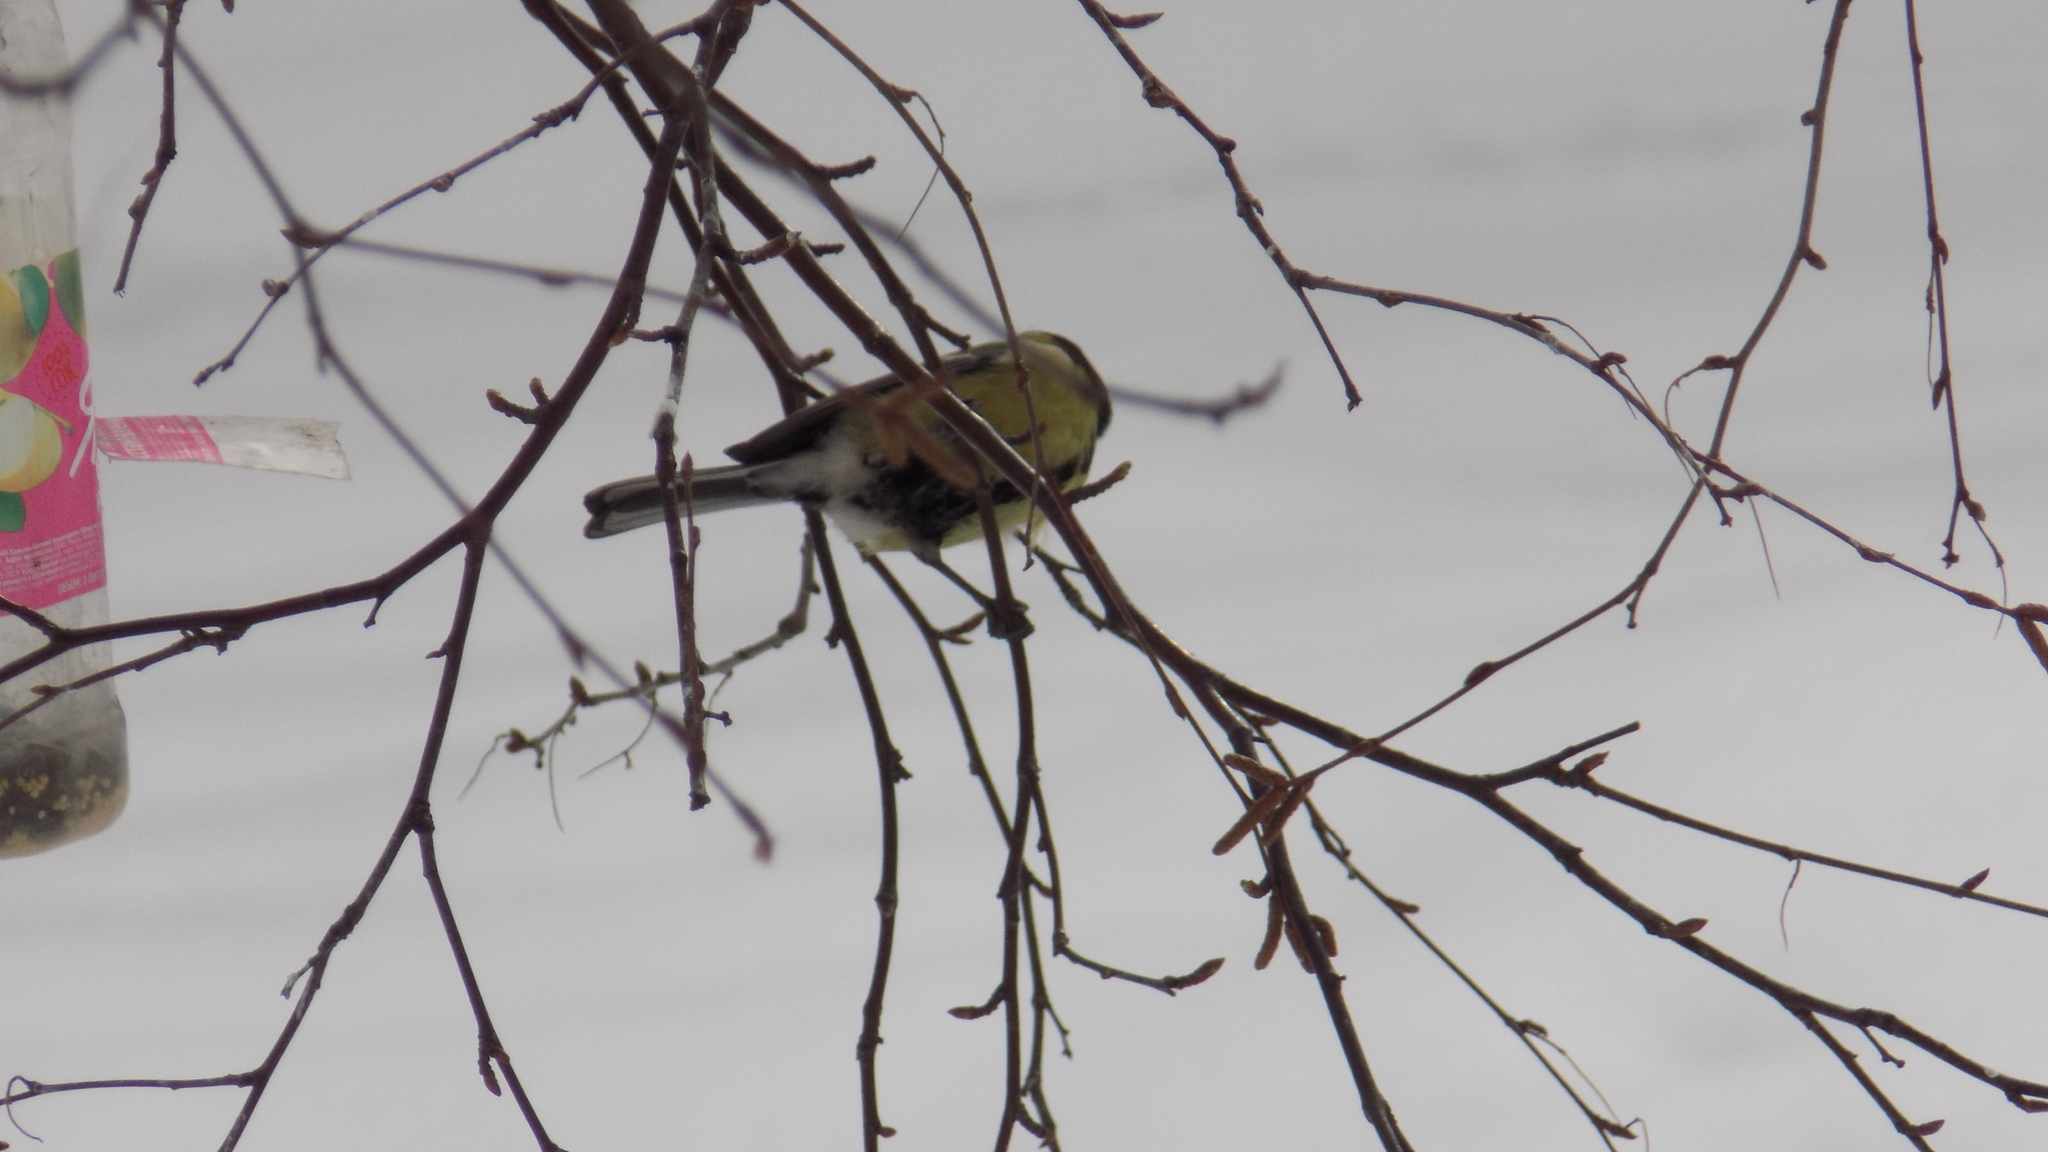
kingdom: Animalia
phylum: Chordata
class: Aves
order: Passeriformes
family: Paridae
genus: Parus
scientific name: Parus major
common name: Great tit
